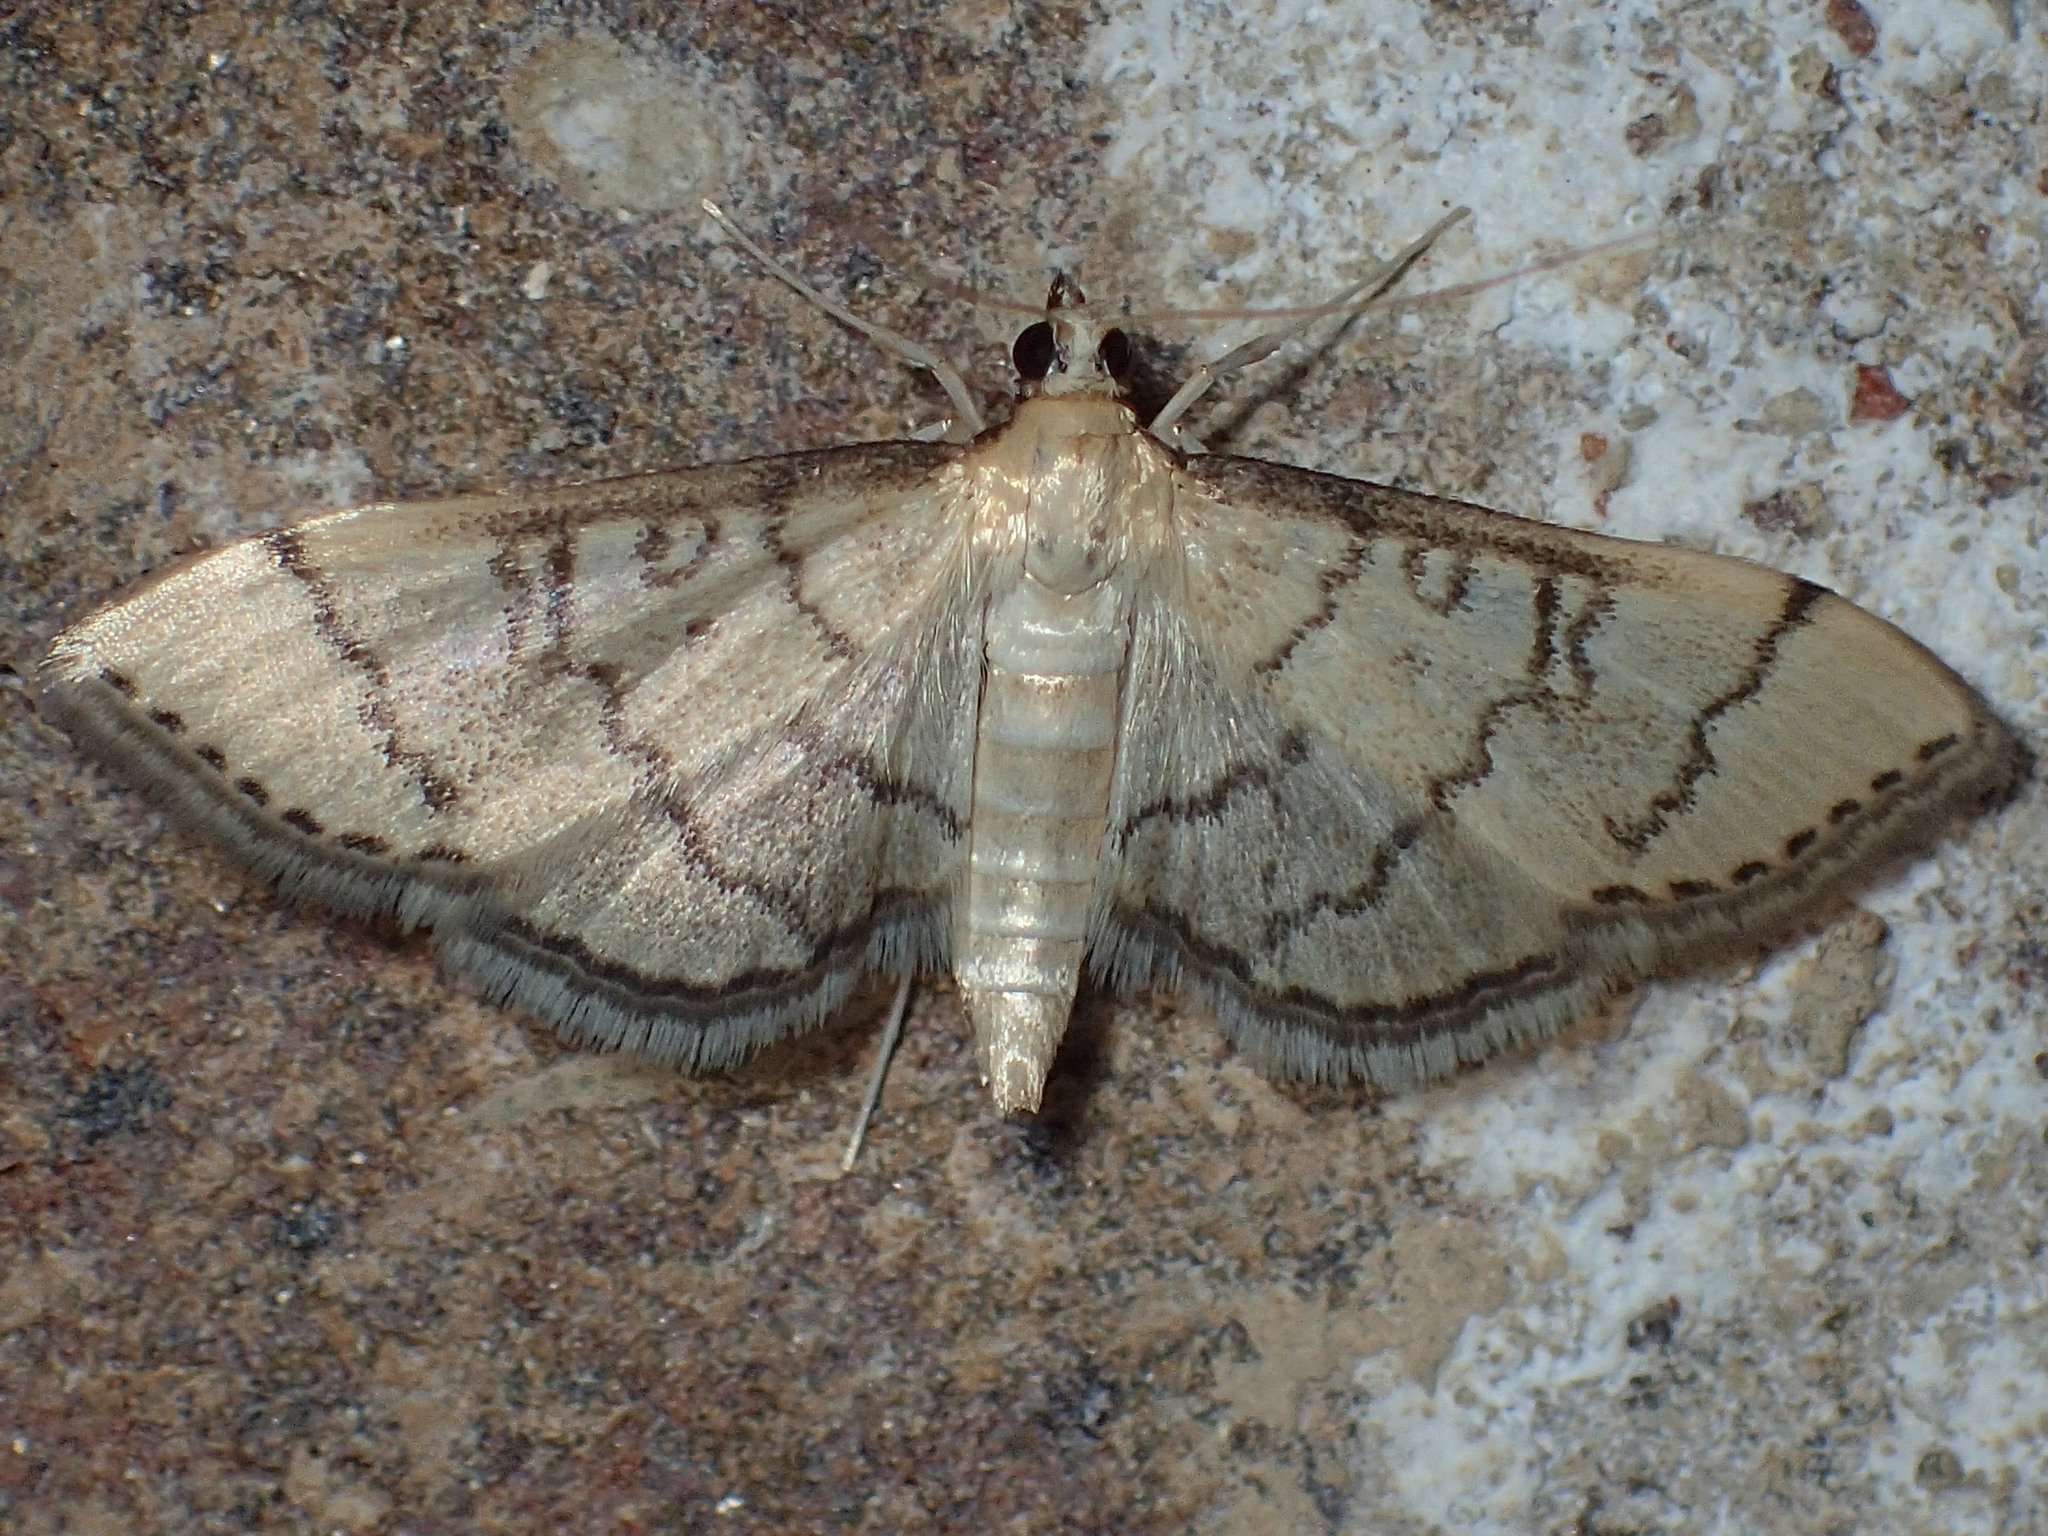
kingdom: Animalia
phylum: Arthropoda
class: Insecta
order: Lepidoptera
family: Crambidae
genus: Lamprosema
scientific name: Lamprosema Blepharomastix ranalis
